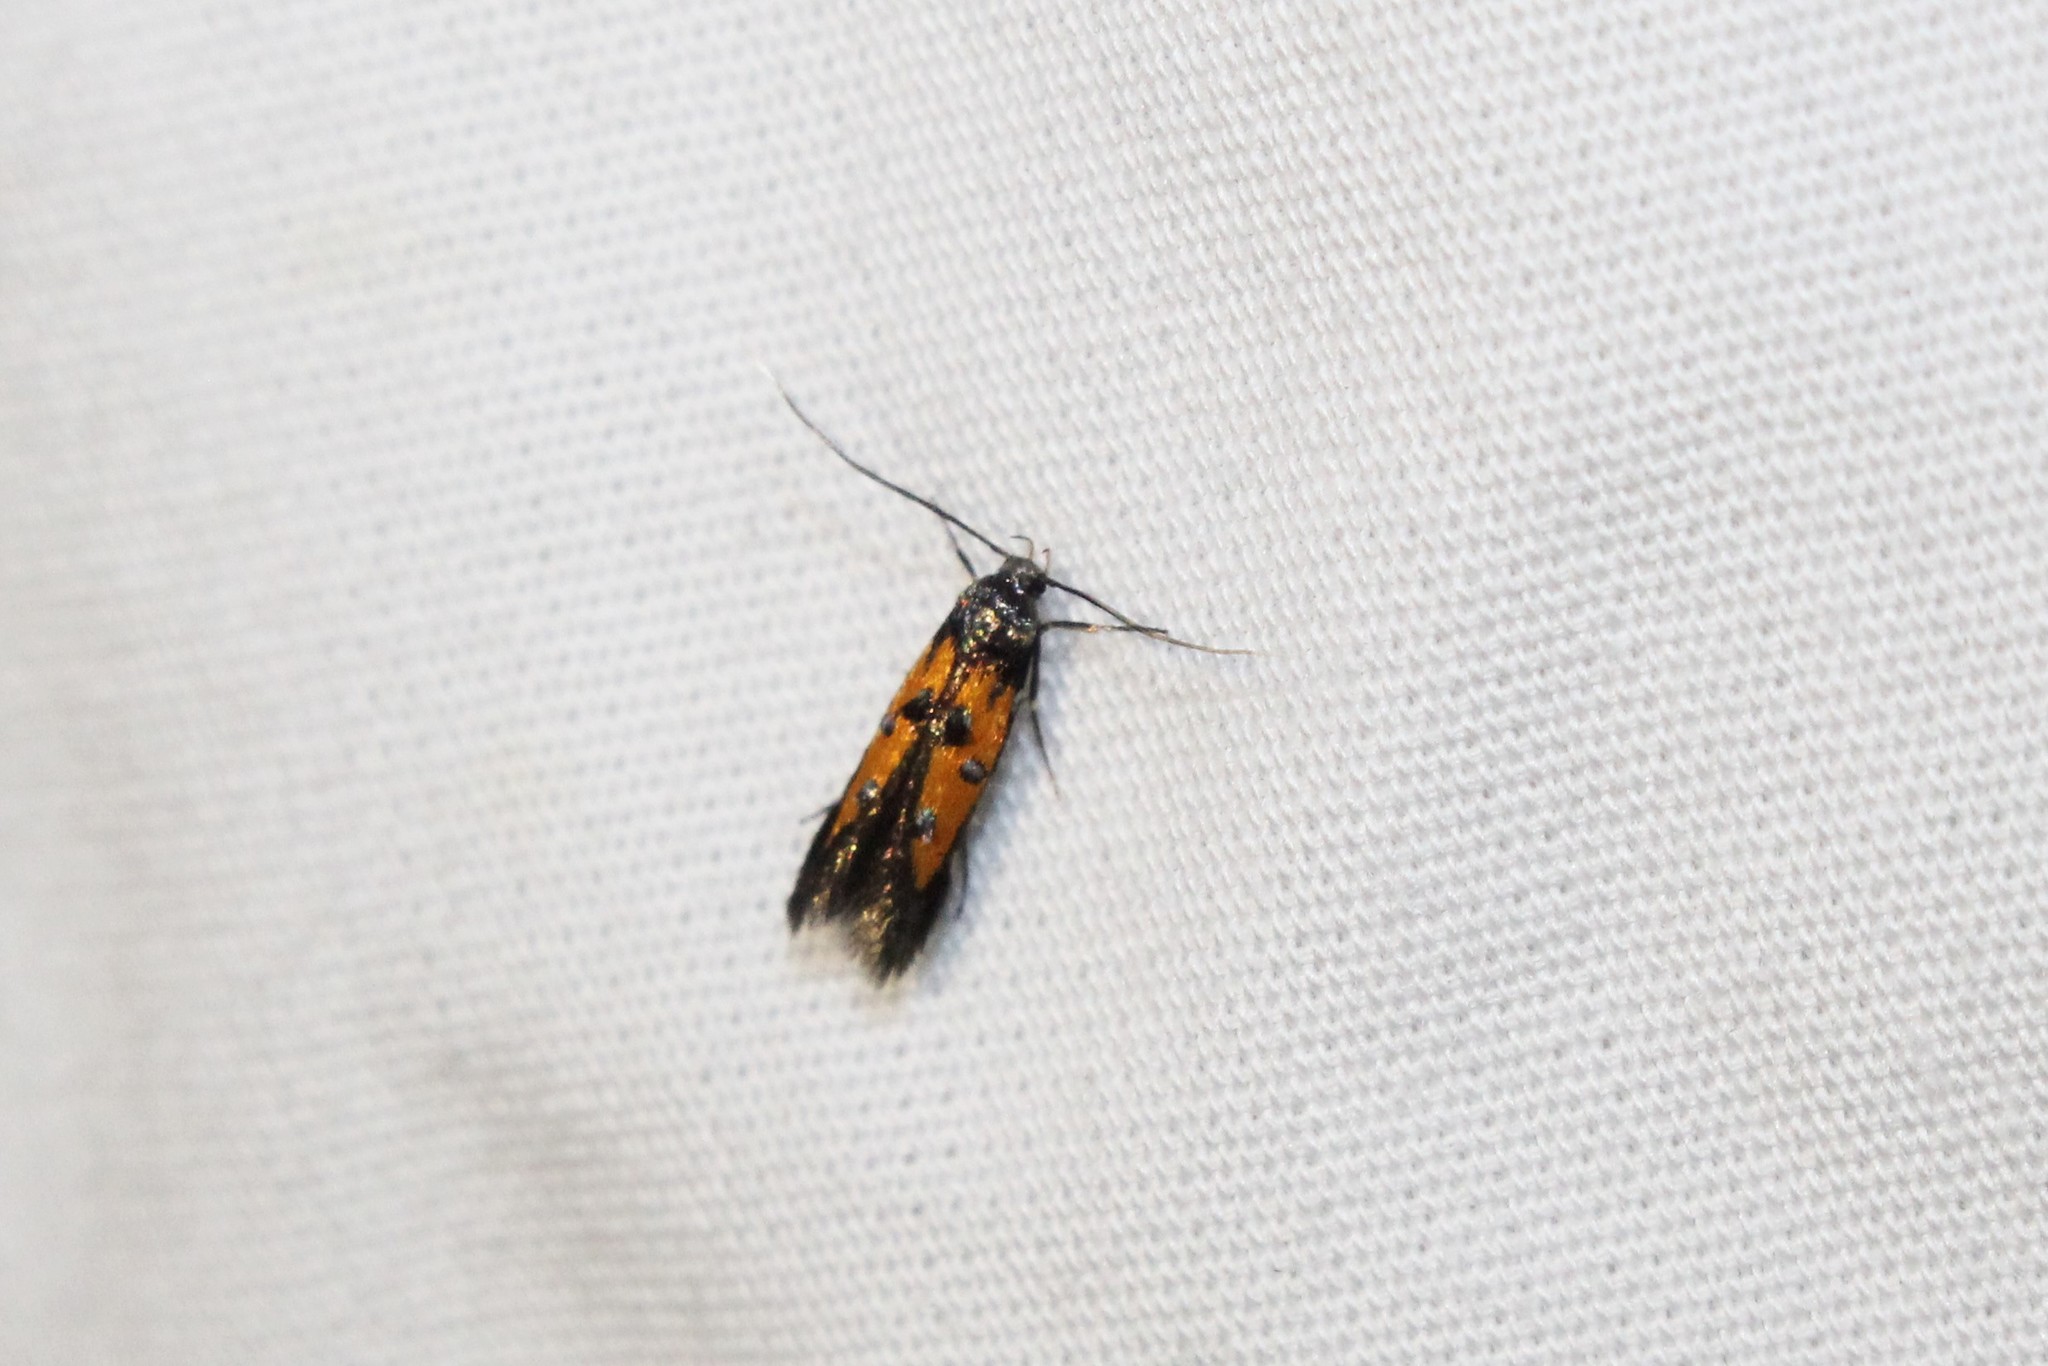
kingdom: Animalia
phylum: Arthropoda
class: Insecta
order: Lepidoptera
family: Elachistidae
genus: Chrysoclista
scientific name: Chrysoclista linneela
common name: Lime cosmet
